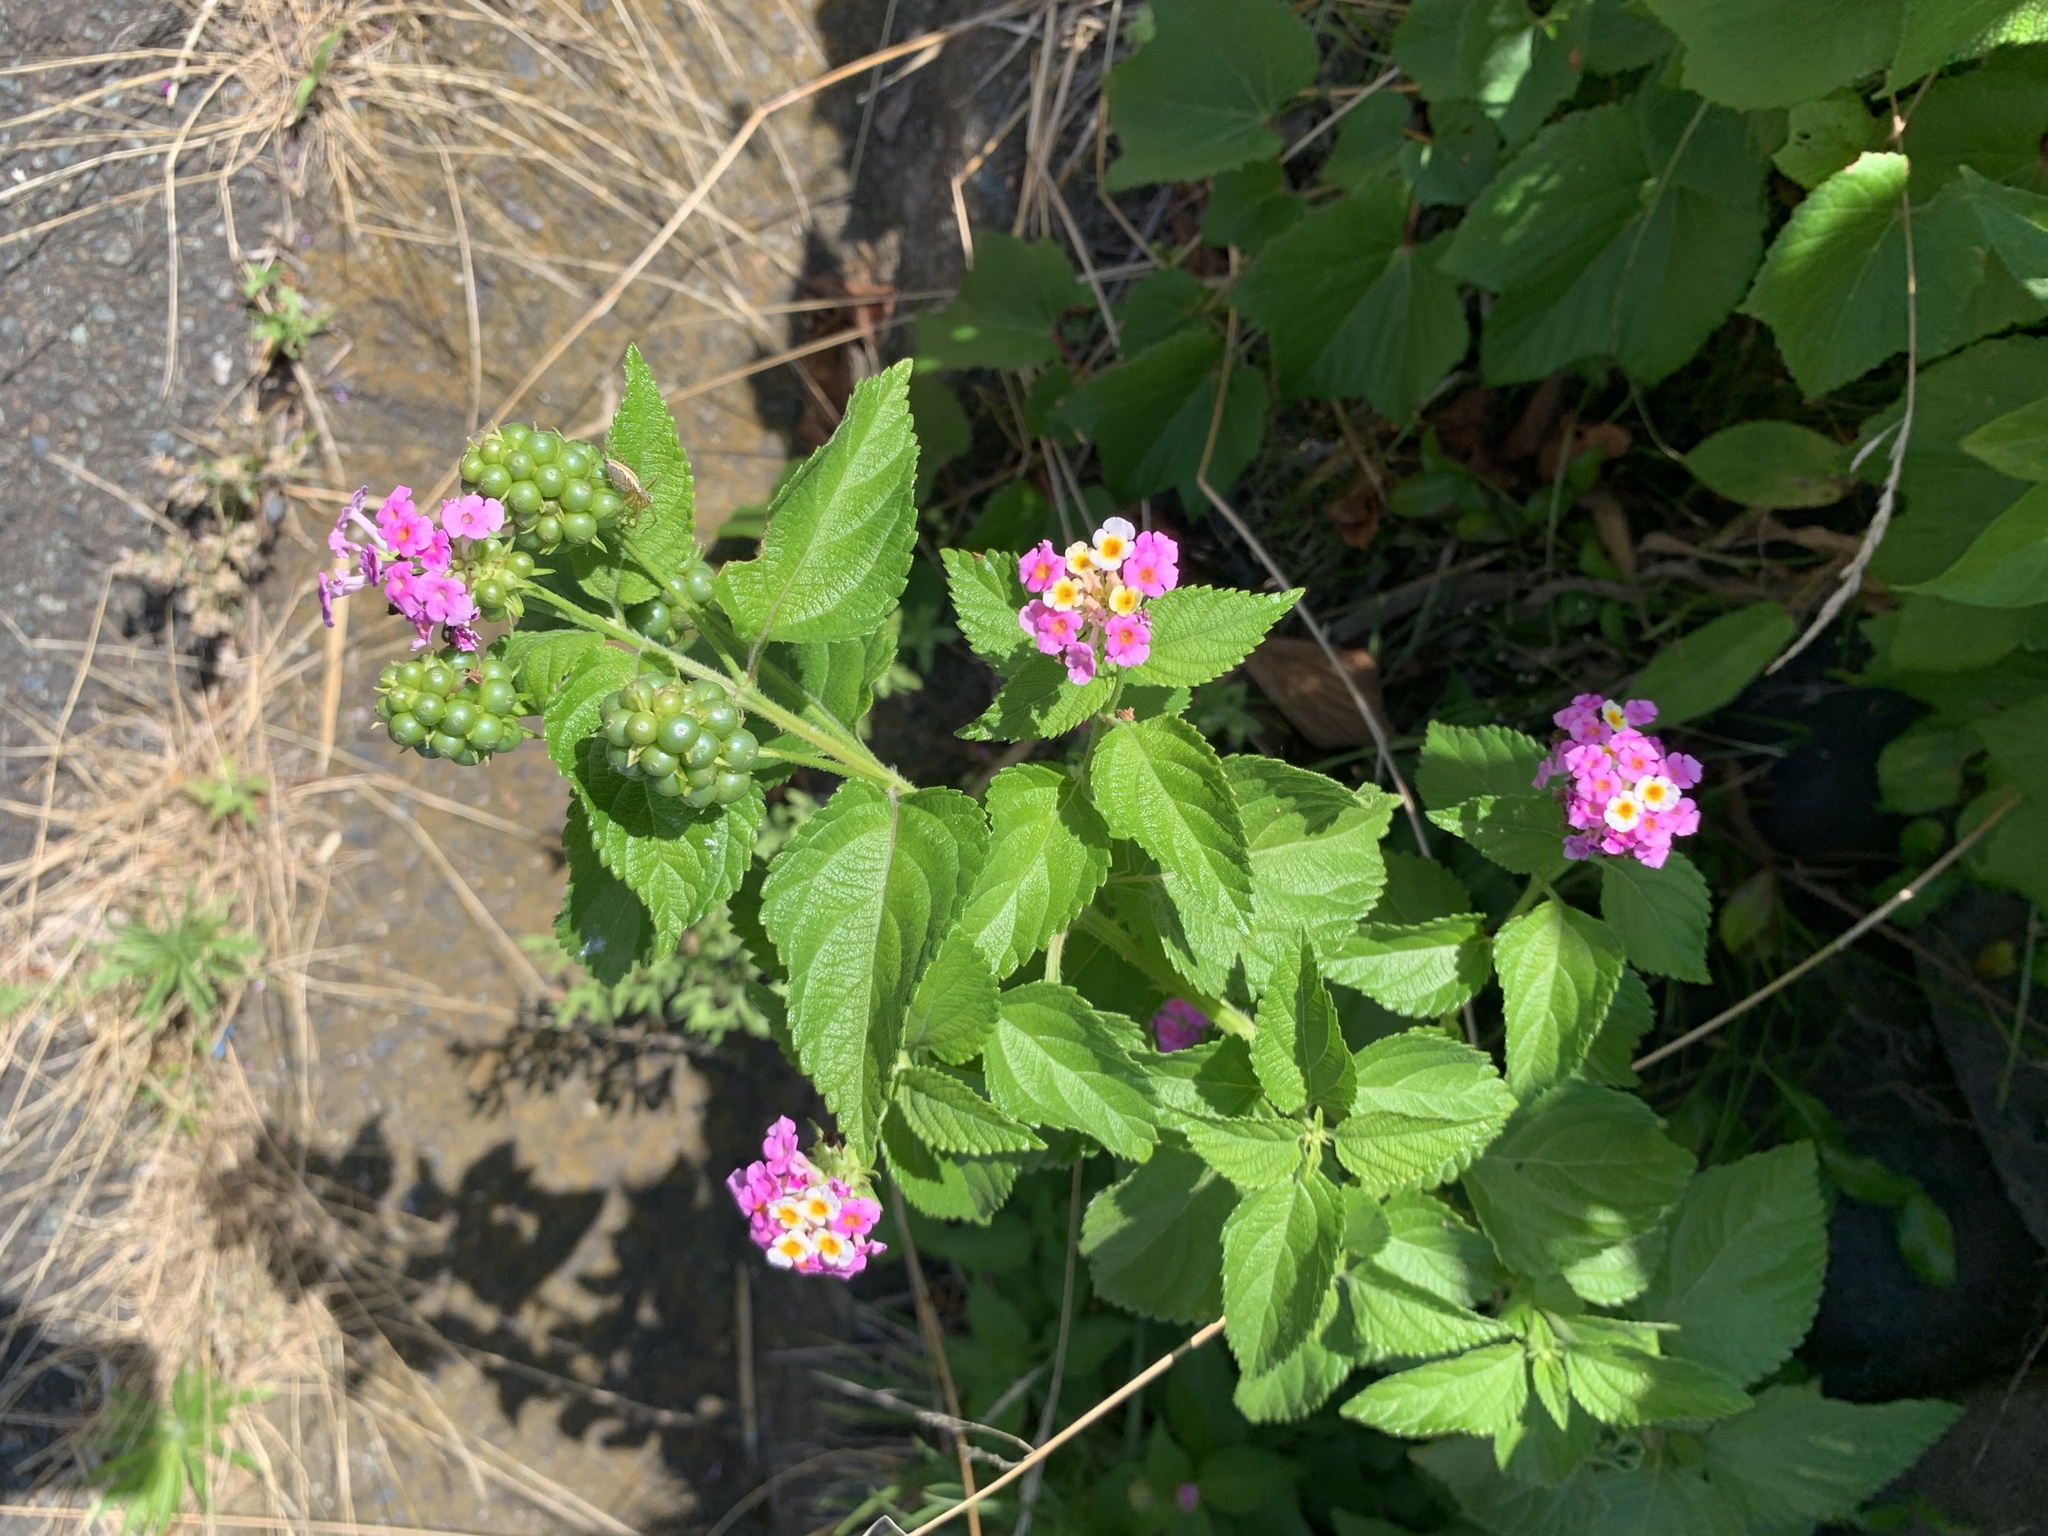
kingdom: Plantae
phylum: Tracheophyta
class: Magnoliopsida
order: Lamiales
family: Verbenaceae
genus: Lantana
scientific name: Lantana camara
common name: Lantana
